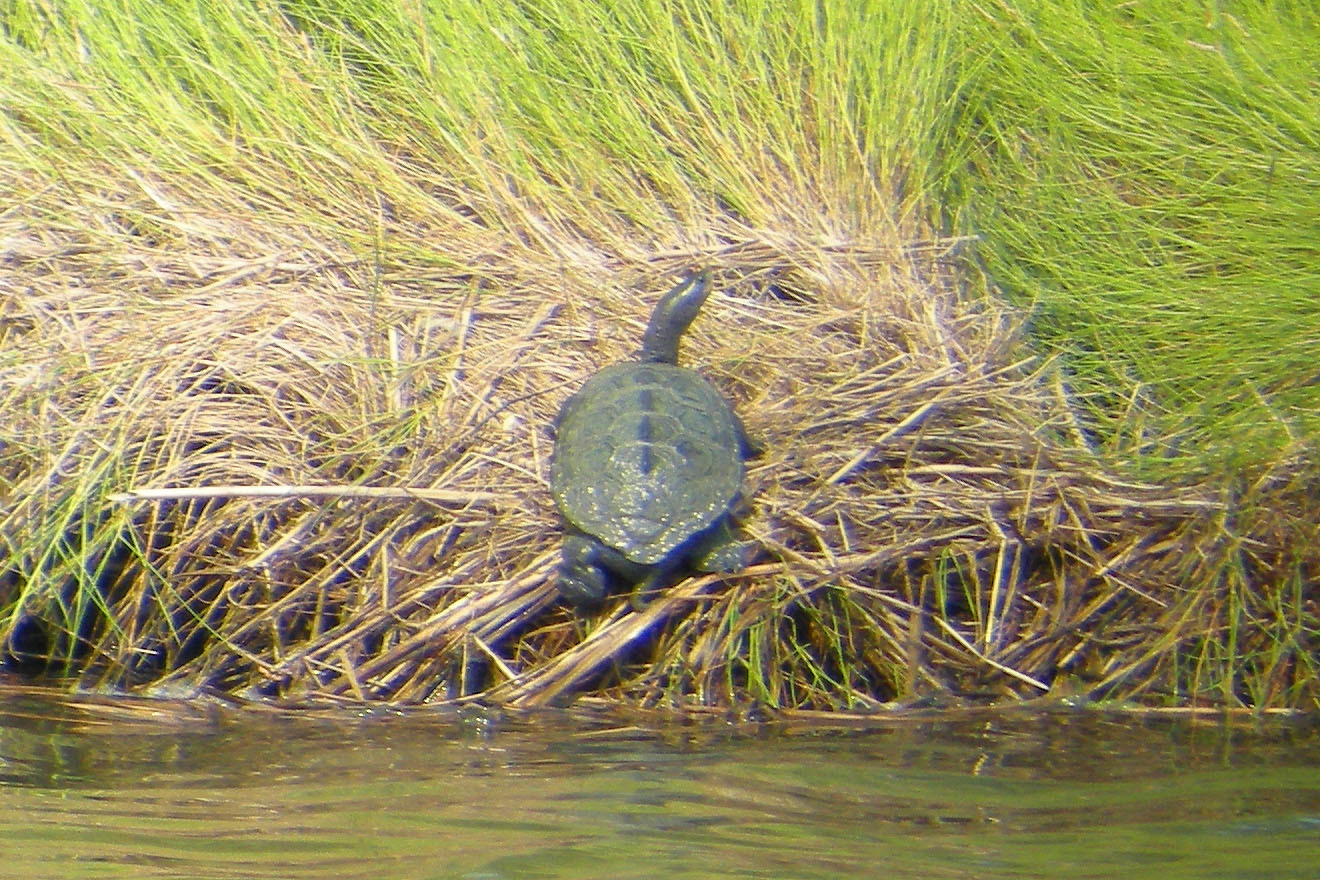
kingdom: Animalia
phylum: Chordata
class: Testudines
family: Emydidae
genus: Malaclemys
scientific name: Malaclemys terrapin
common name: Diamondback terrapin
